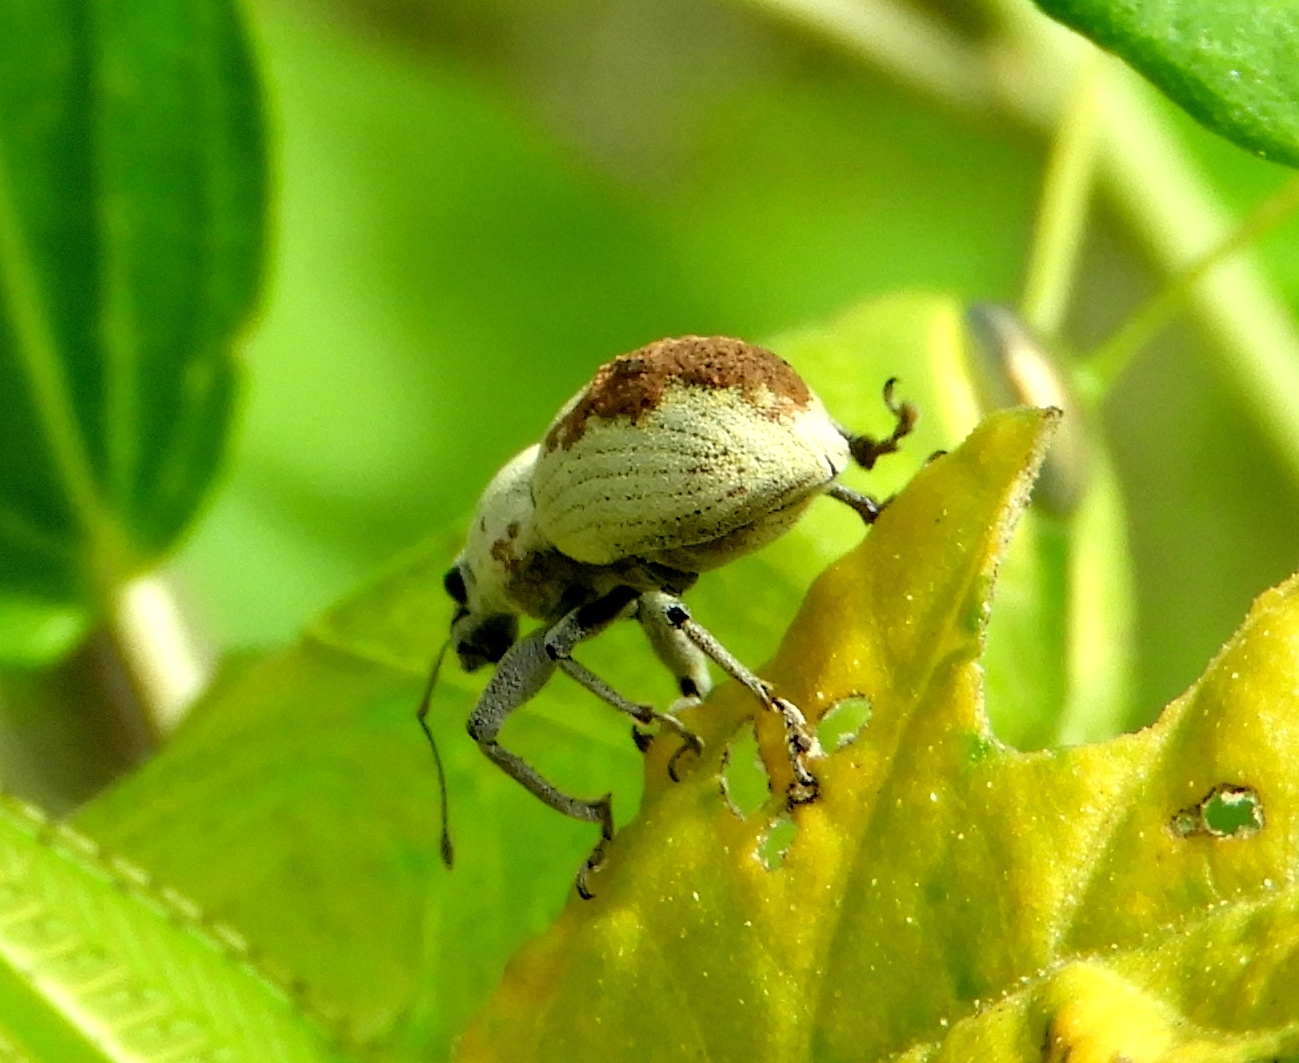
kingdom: Animalia
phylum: Arthropoda
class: Insecta
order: Coleoptera
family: Curculionidae
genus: Pantomorus
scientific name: Pantomorus
